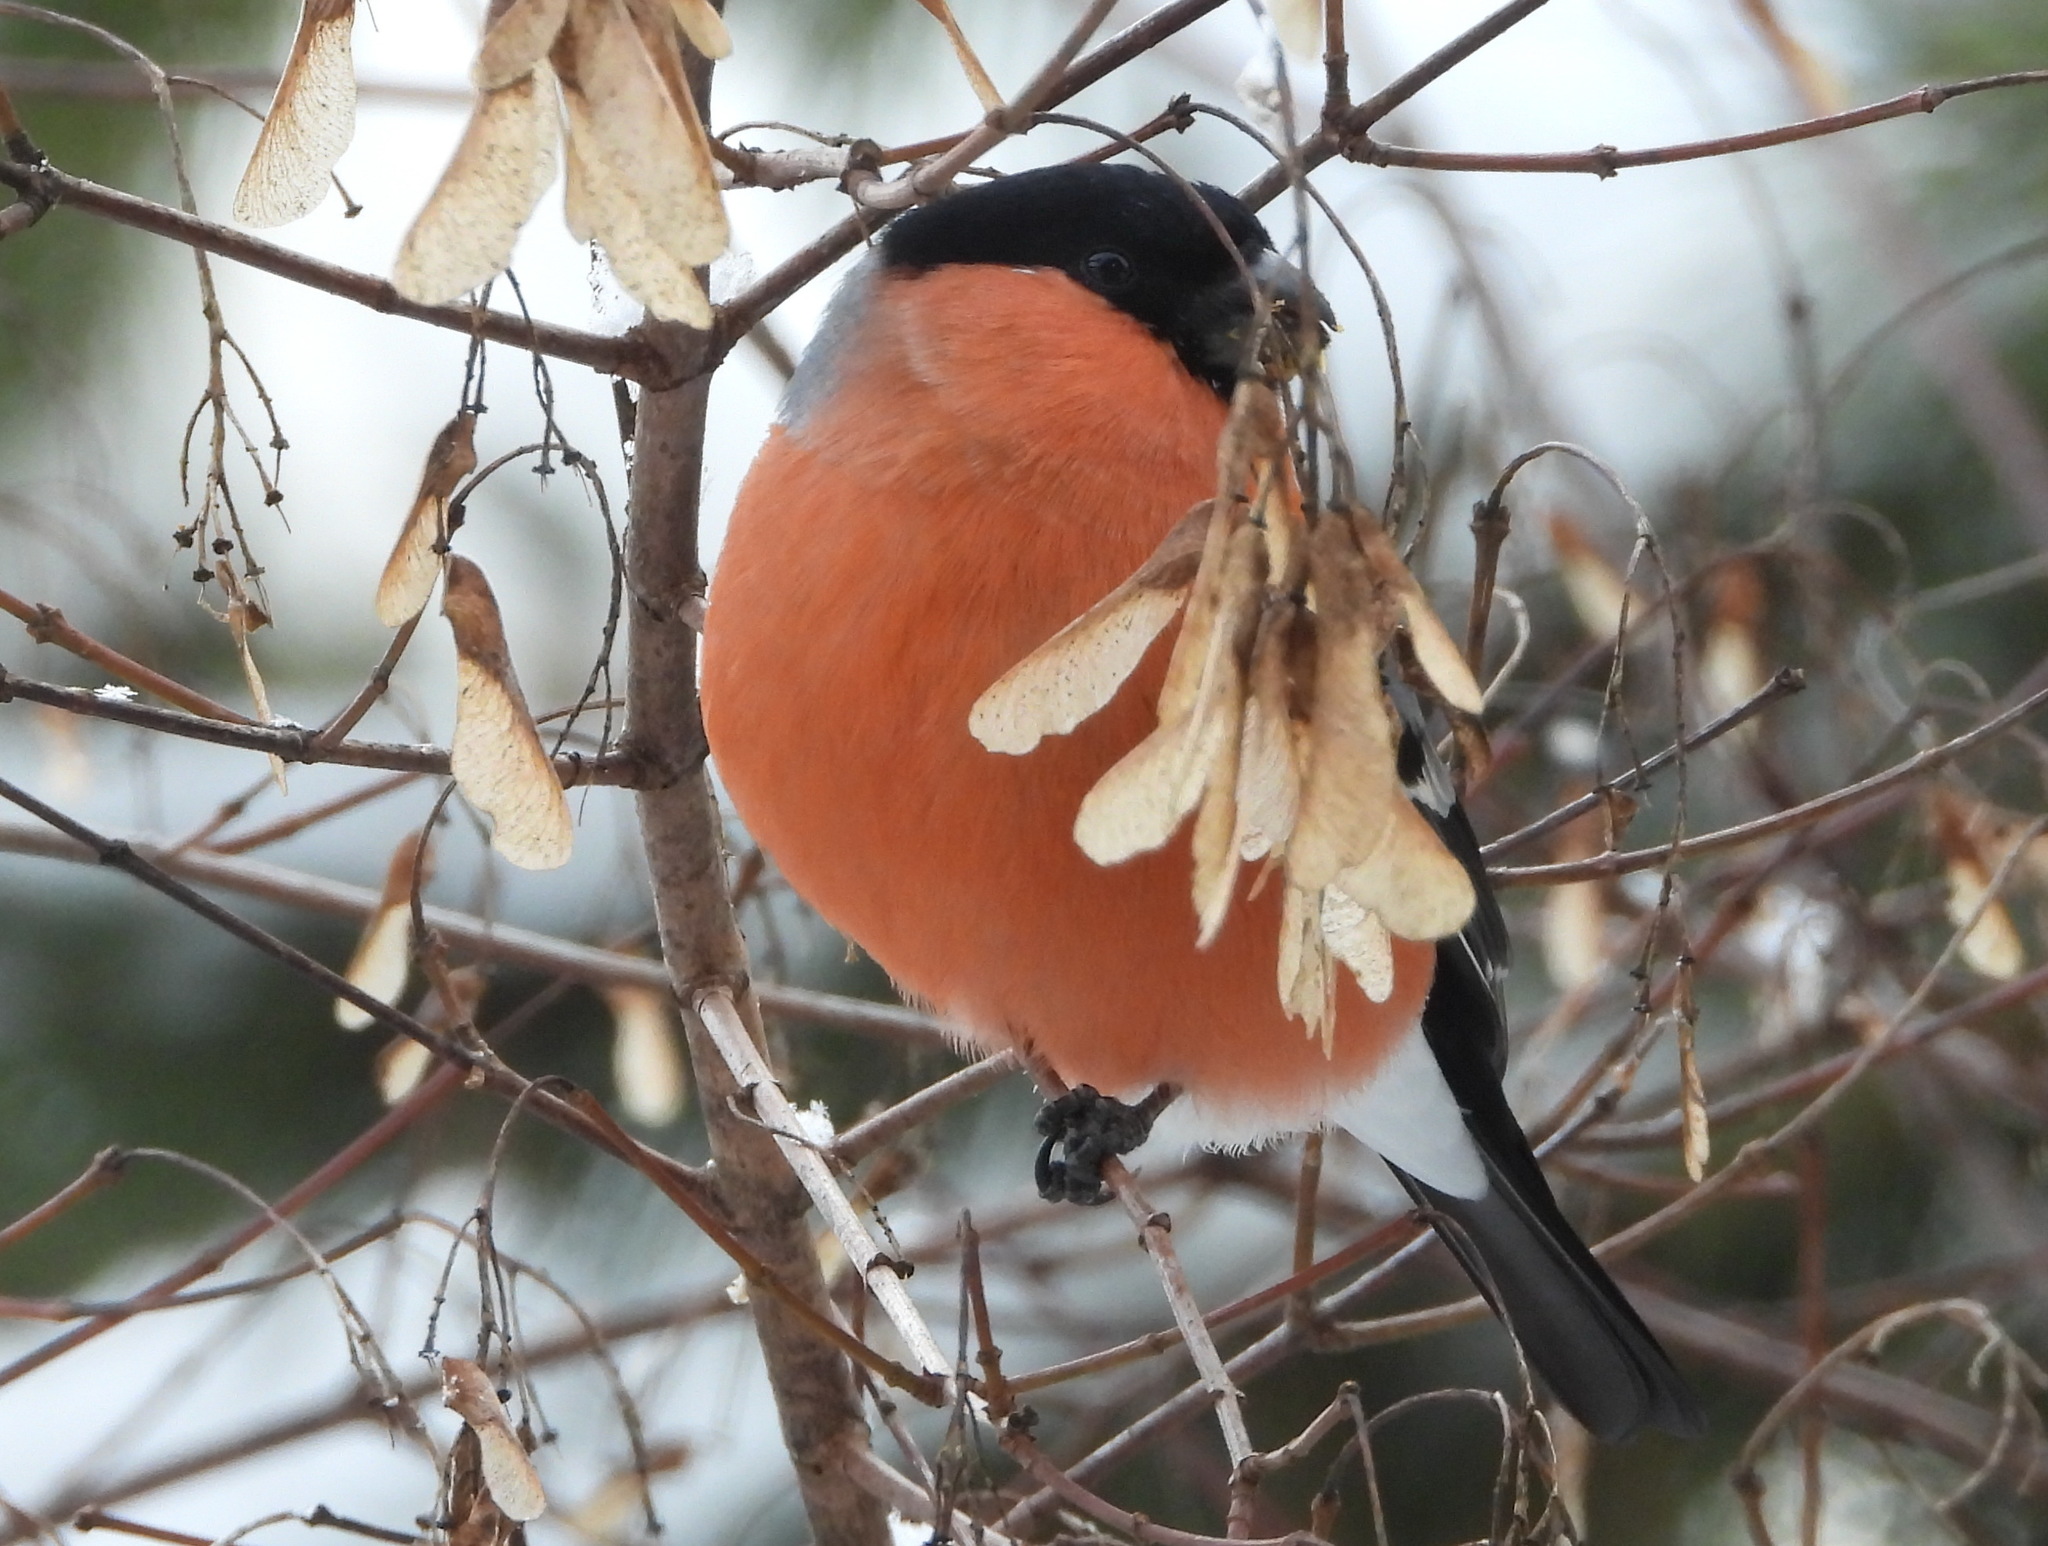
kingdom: Animalia
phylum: Chordata
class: Aves
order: Passeriformes
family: Fringillidae
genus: Pyrrhula
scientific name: Pyrrhula pyrrhula
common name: Eurasian bullfinch
